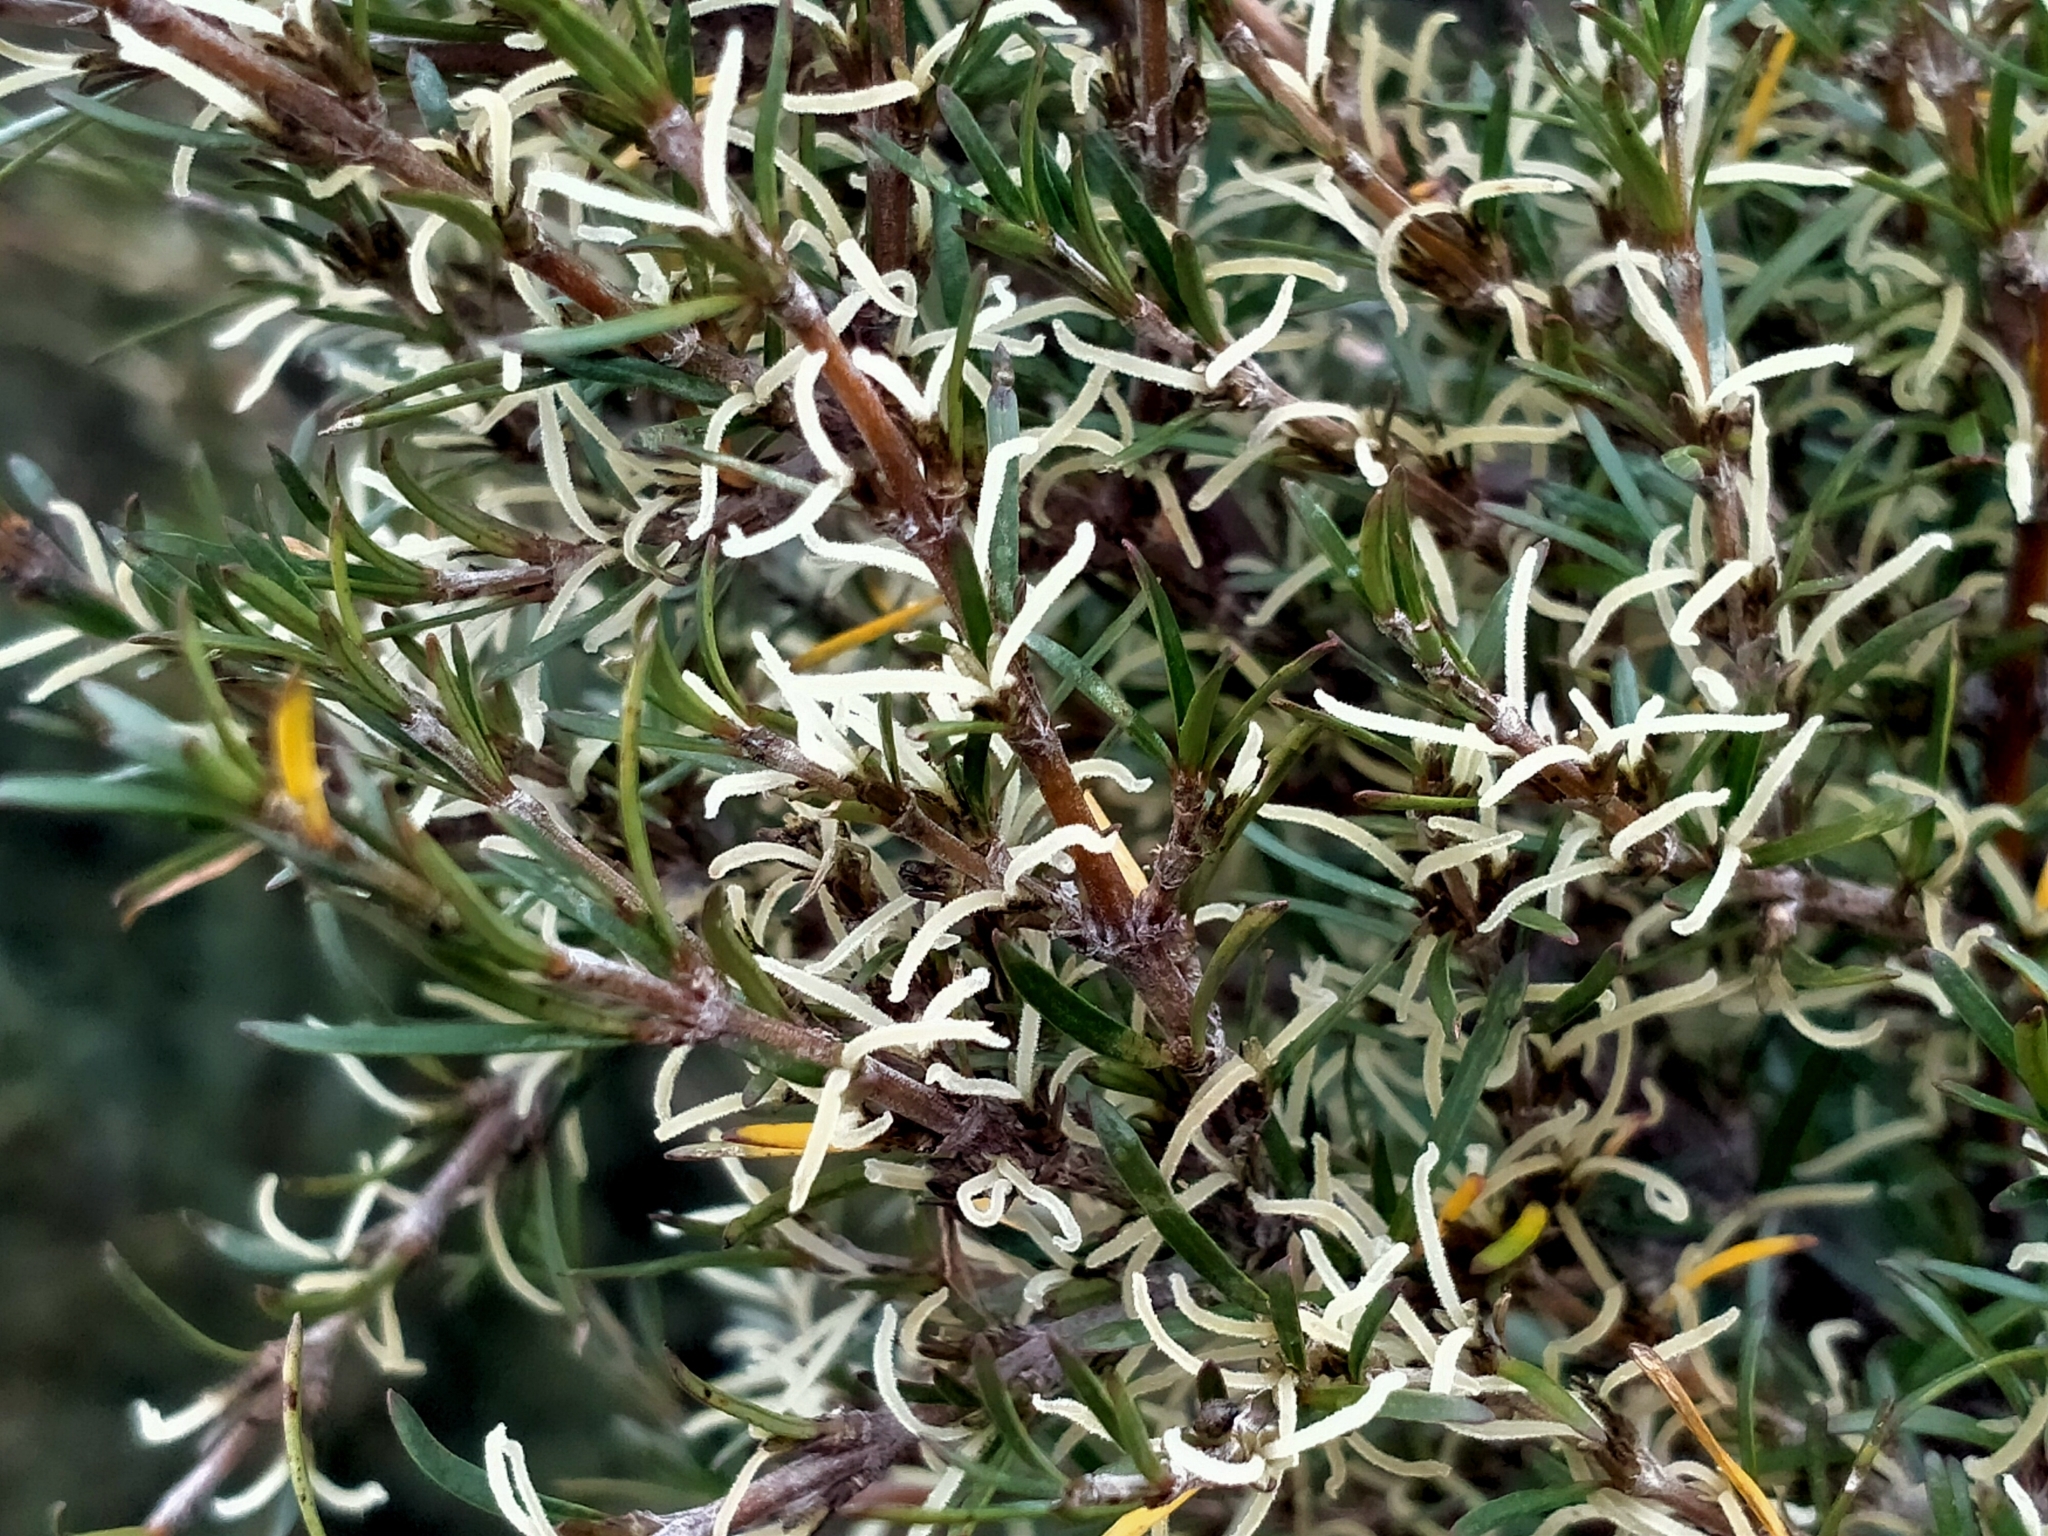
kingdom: Plantae
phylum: Tracheophyta
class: Magnoliopsida
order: Gentianales
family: Rubiaceae
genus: Coprosma
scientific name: Coprosma rugosa
